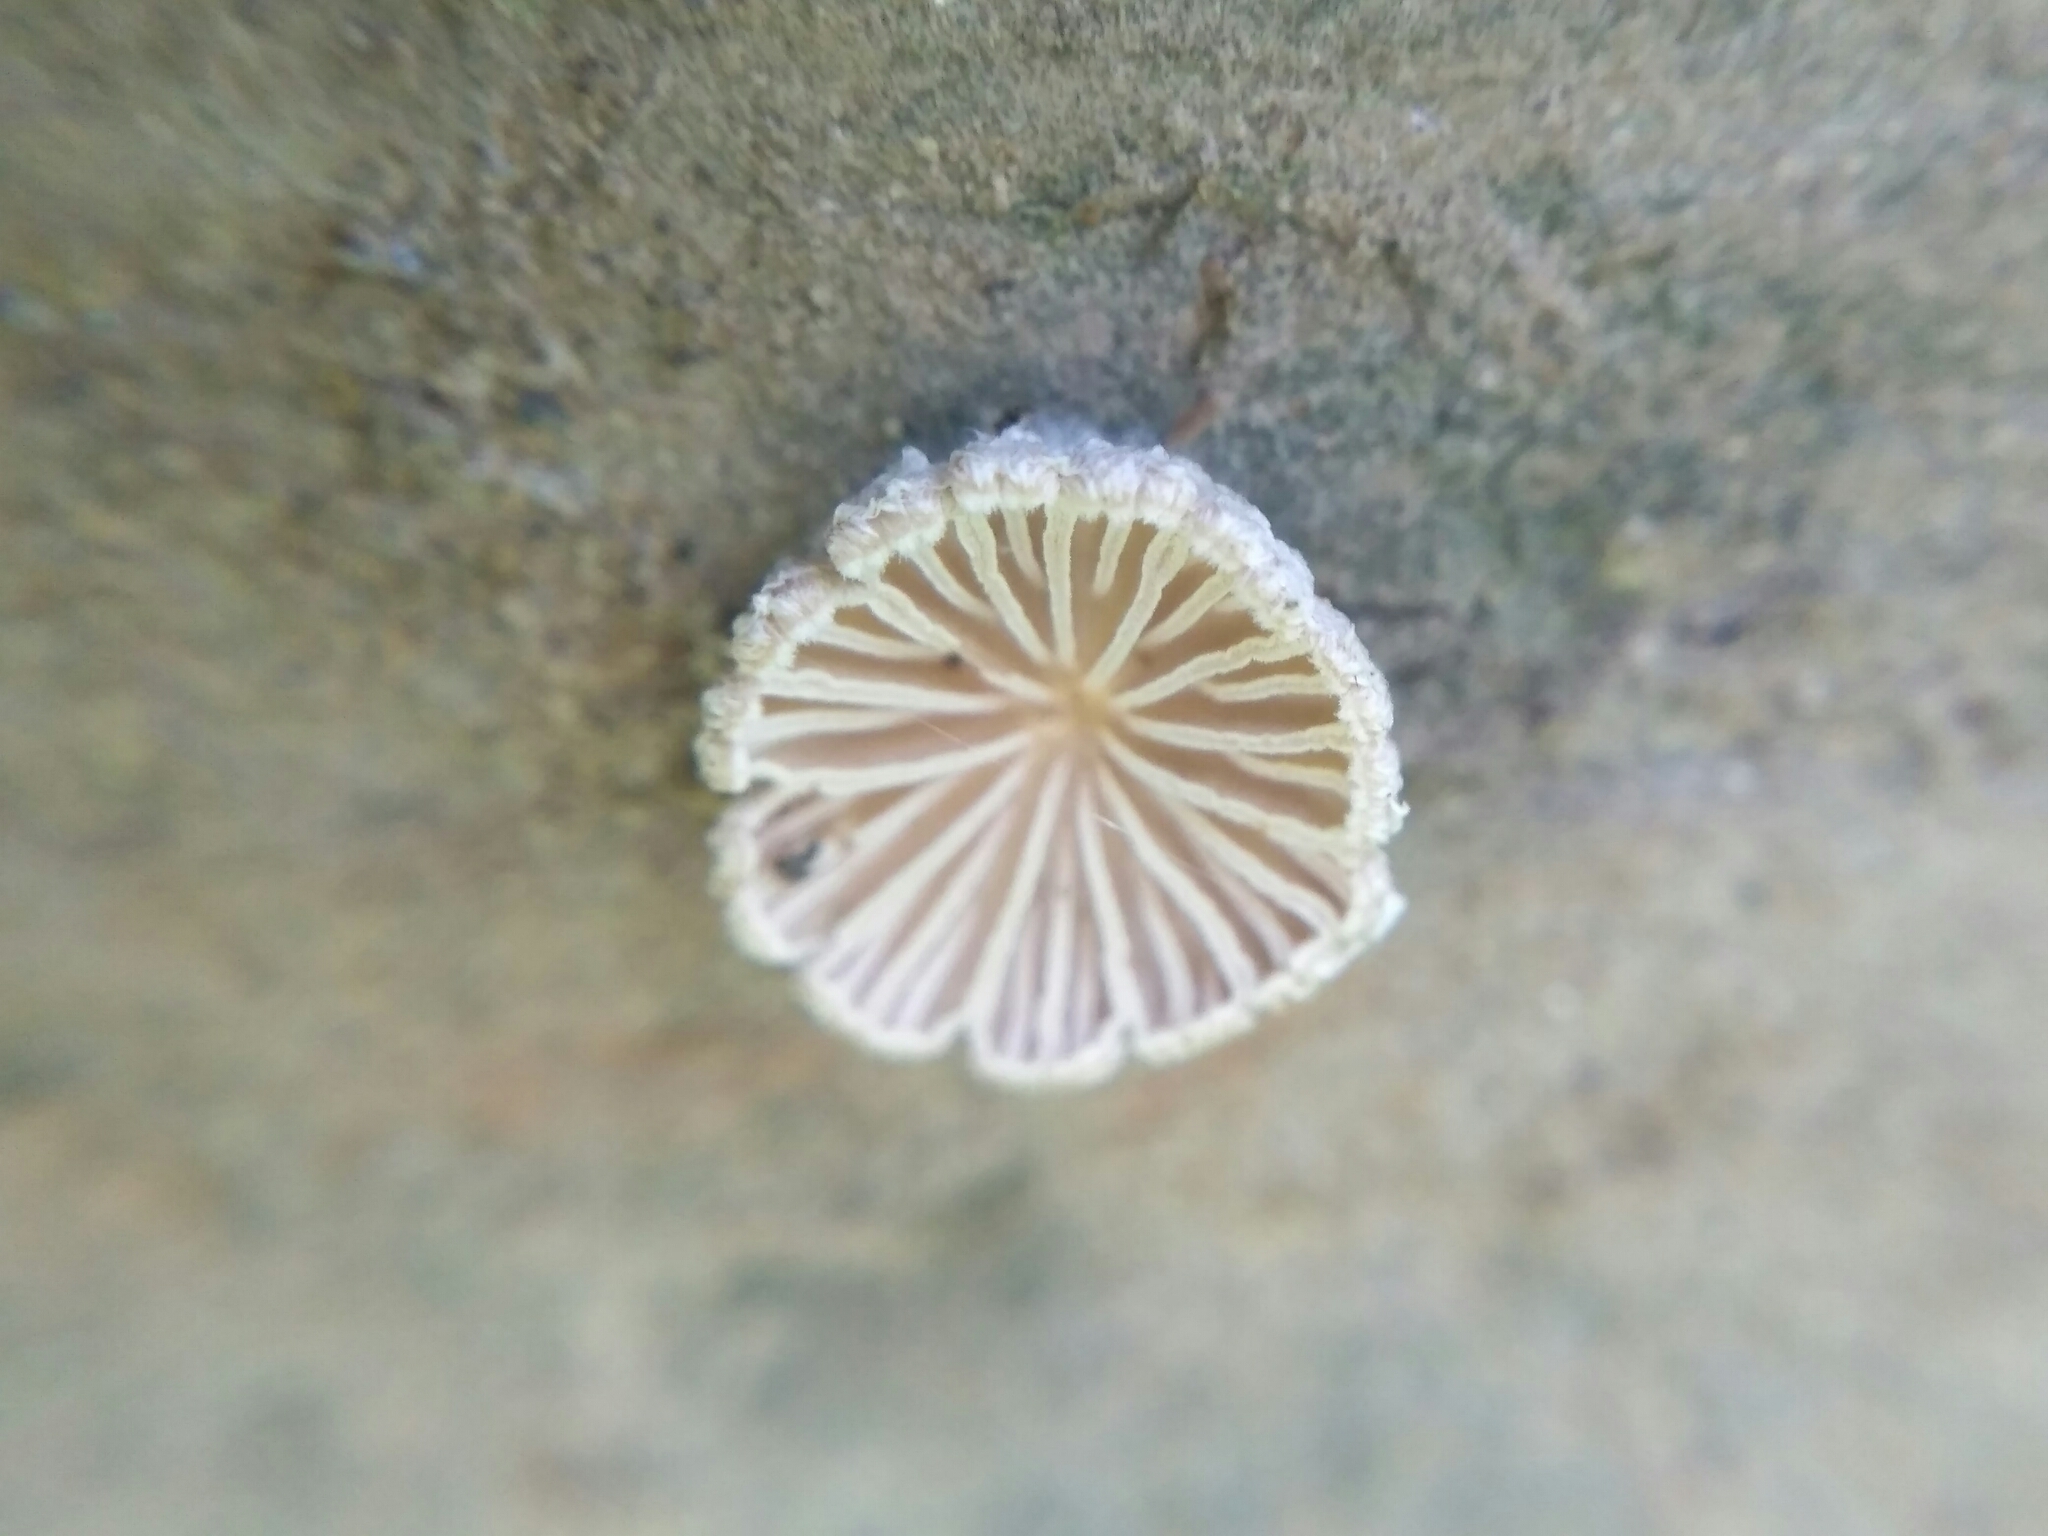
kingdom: Fungi
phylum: Basidiomycota
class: Agaricomycetes
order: Agaricales
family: Schizophyllaceae
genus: Schizophyllum
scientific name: Schizophyllum commune
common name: Common porecrust
